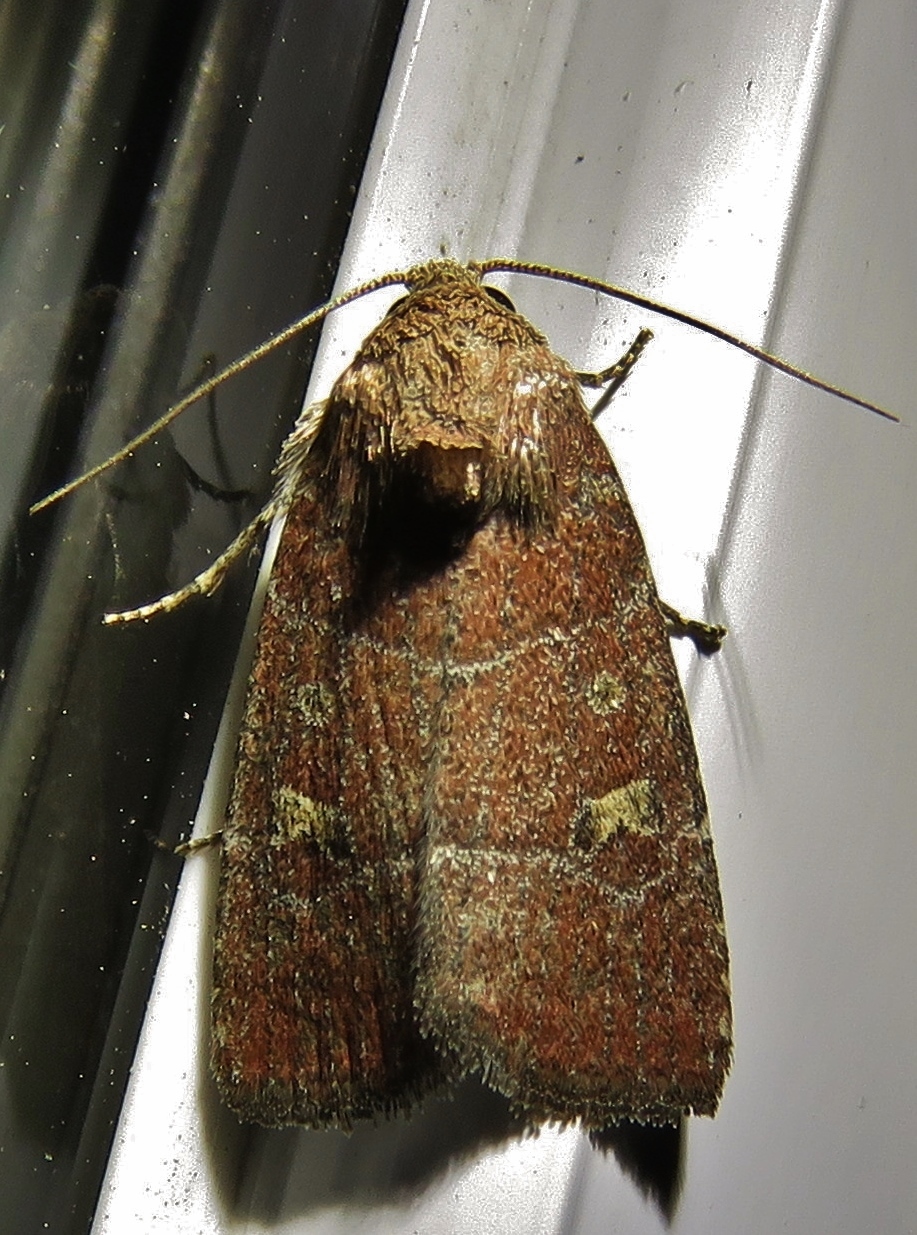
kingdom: Animalia
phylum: Arthropoda
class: Insecta
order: Lepidoptera
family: Noctuidae
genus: Elaphria
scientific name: Elaphria grata
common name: Grateful midget moth
